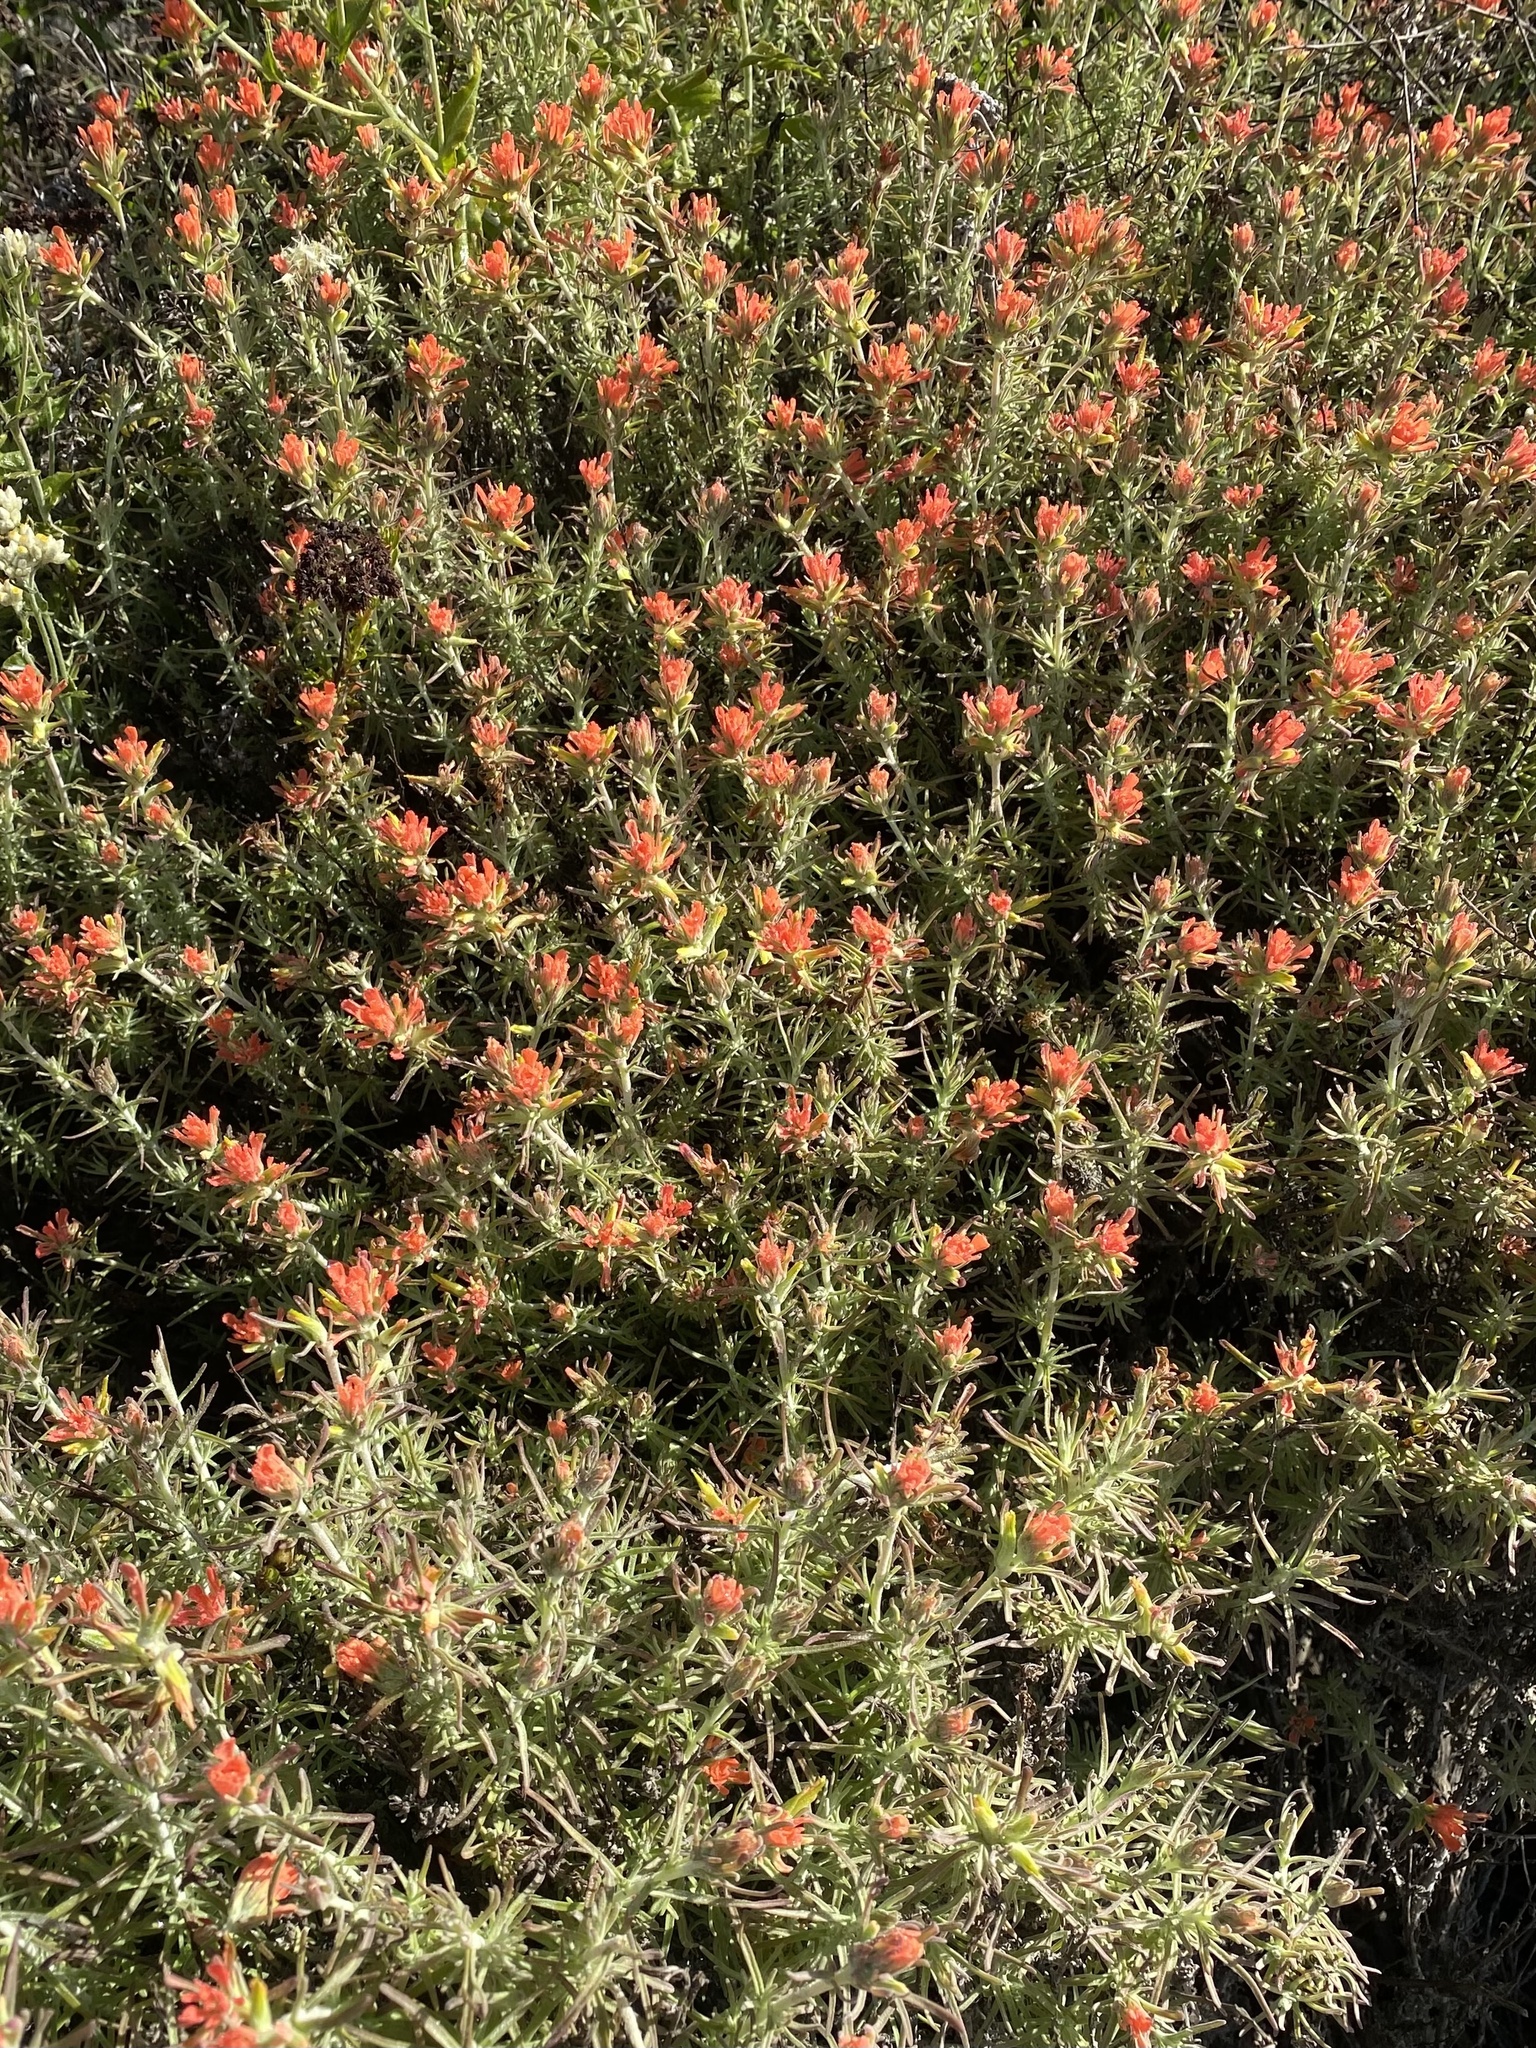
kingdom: Plantae
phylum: Tracheophyta
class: Magnoliopsida
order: Lamiales
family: Orobanchaceae
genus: Castilleja
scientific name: Castilleja foliolosa
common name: Woolly indian paintbrush
